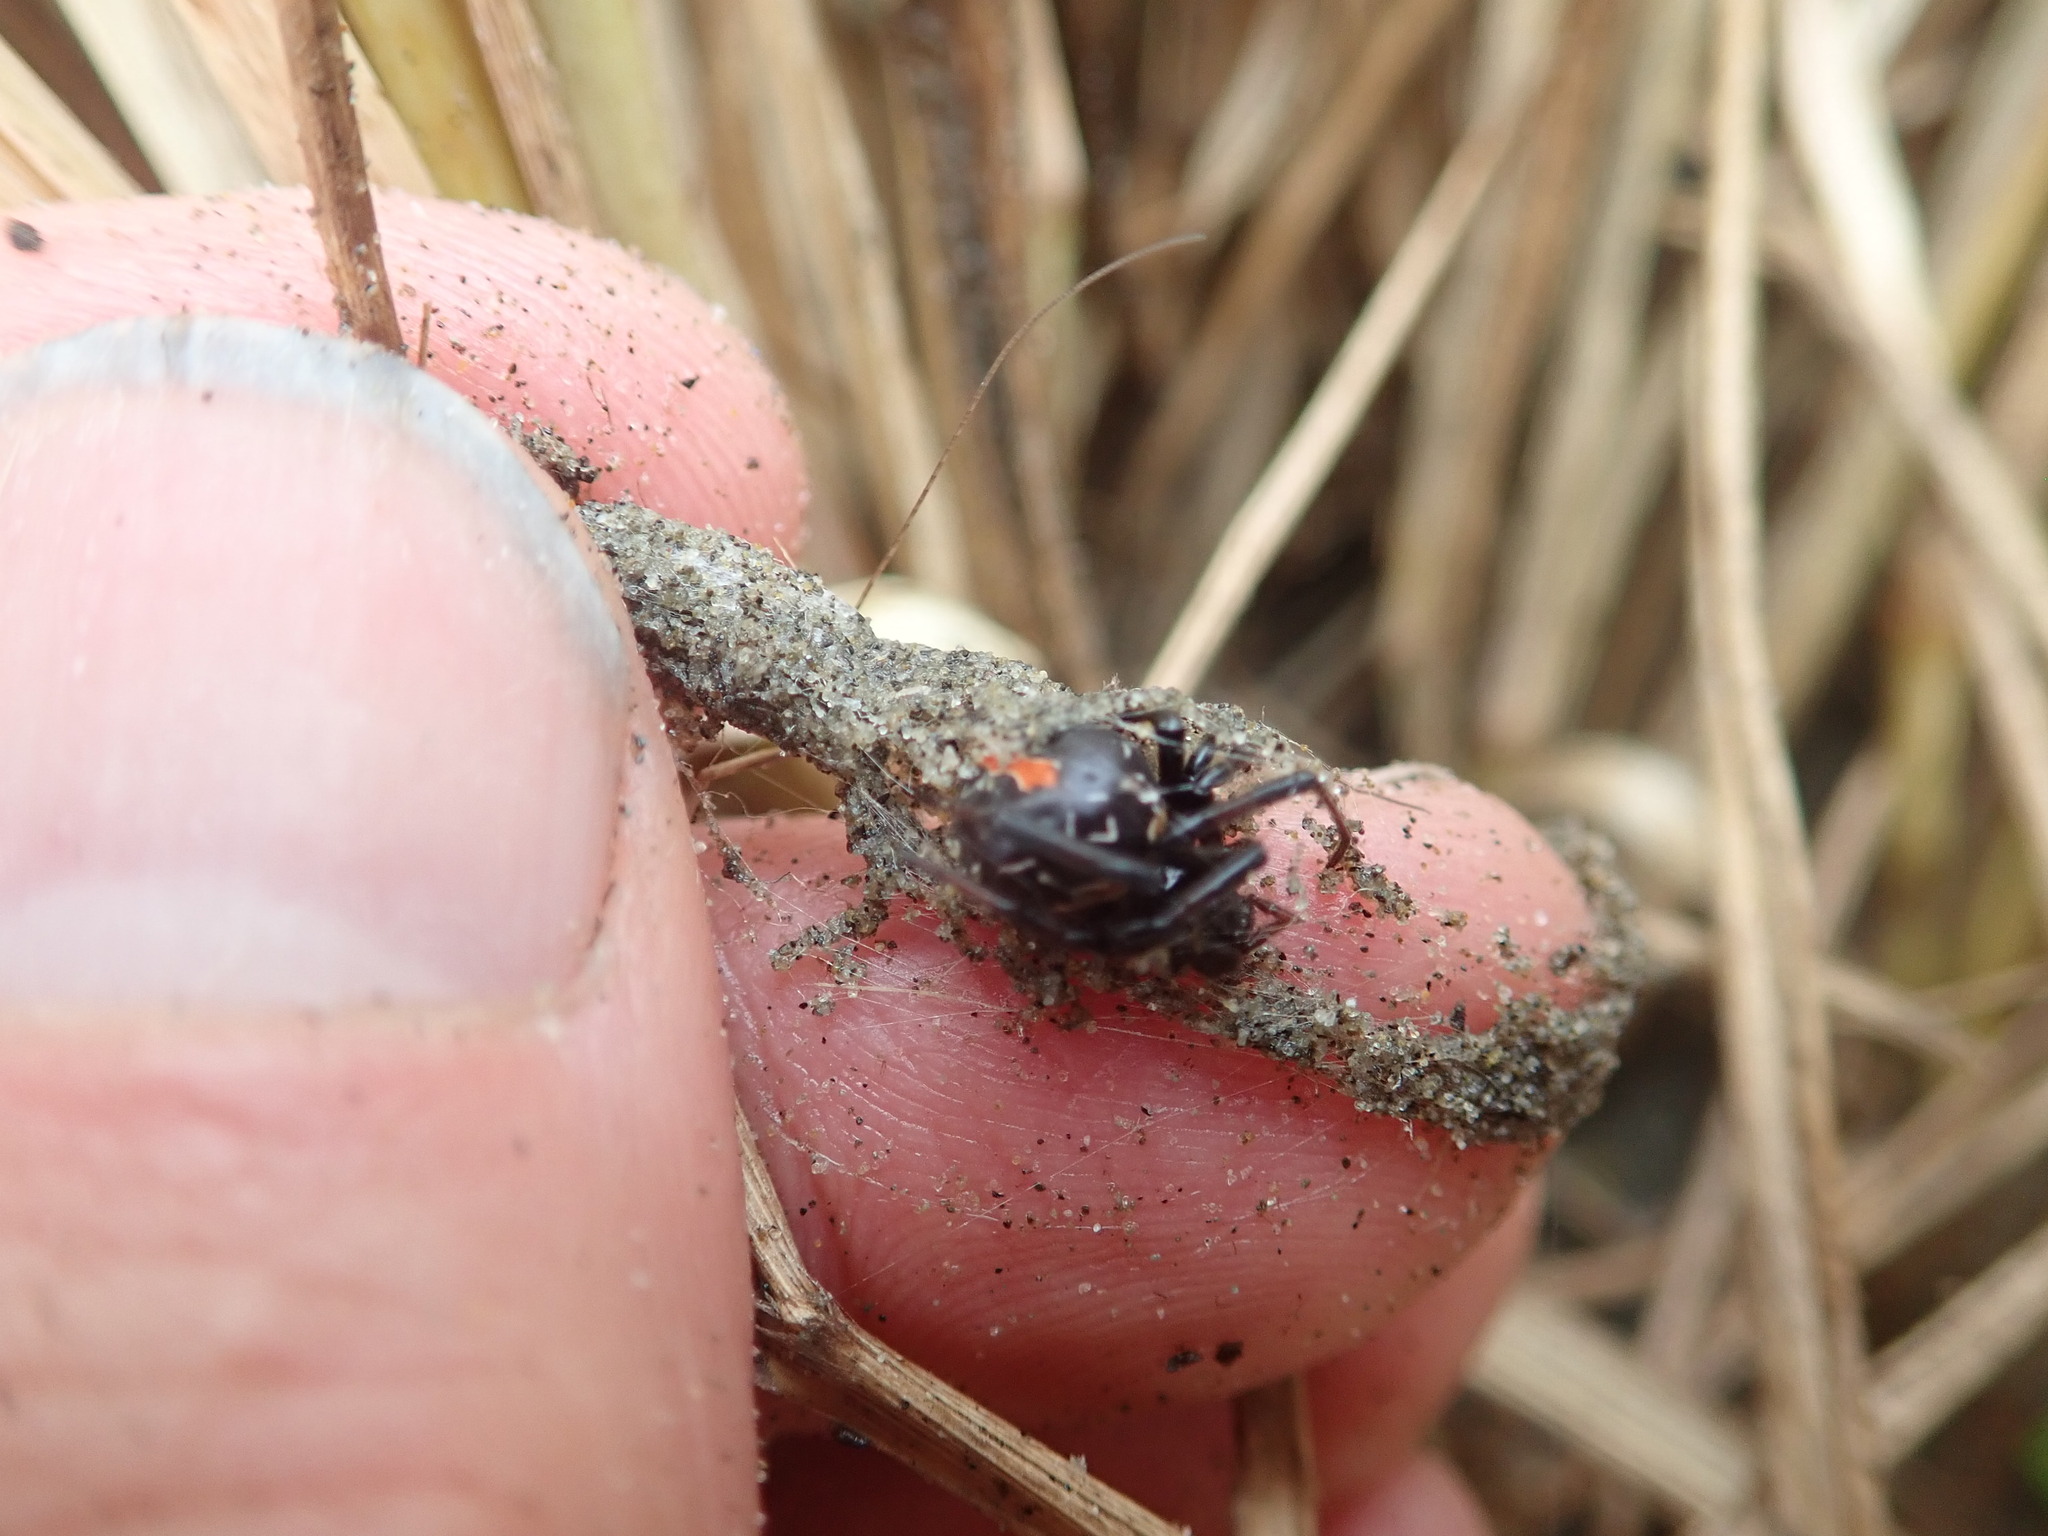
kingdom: Animalia
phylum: Arthropoda
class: Arachnida
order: Araneae
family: Theridiidae
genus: Latrodectus
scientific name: Latrodectus katipo
